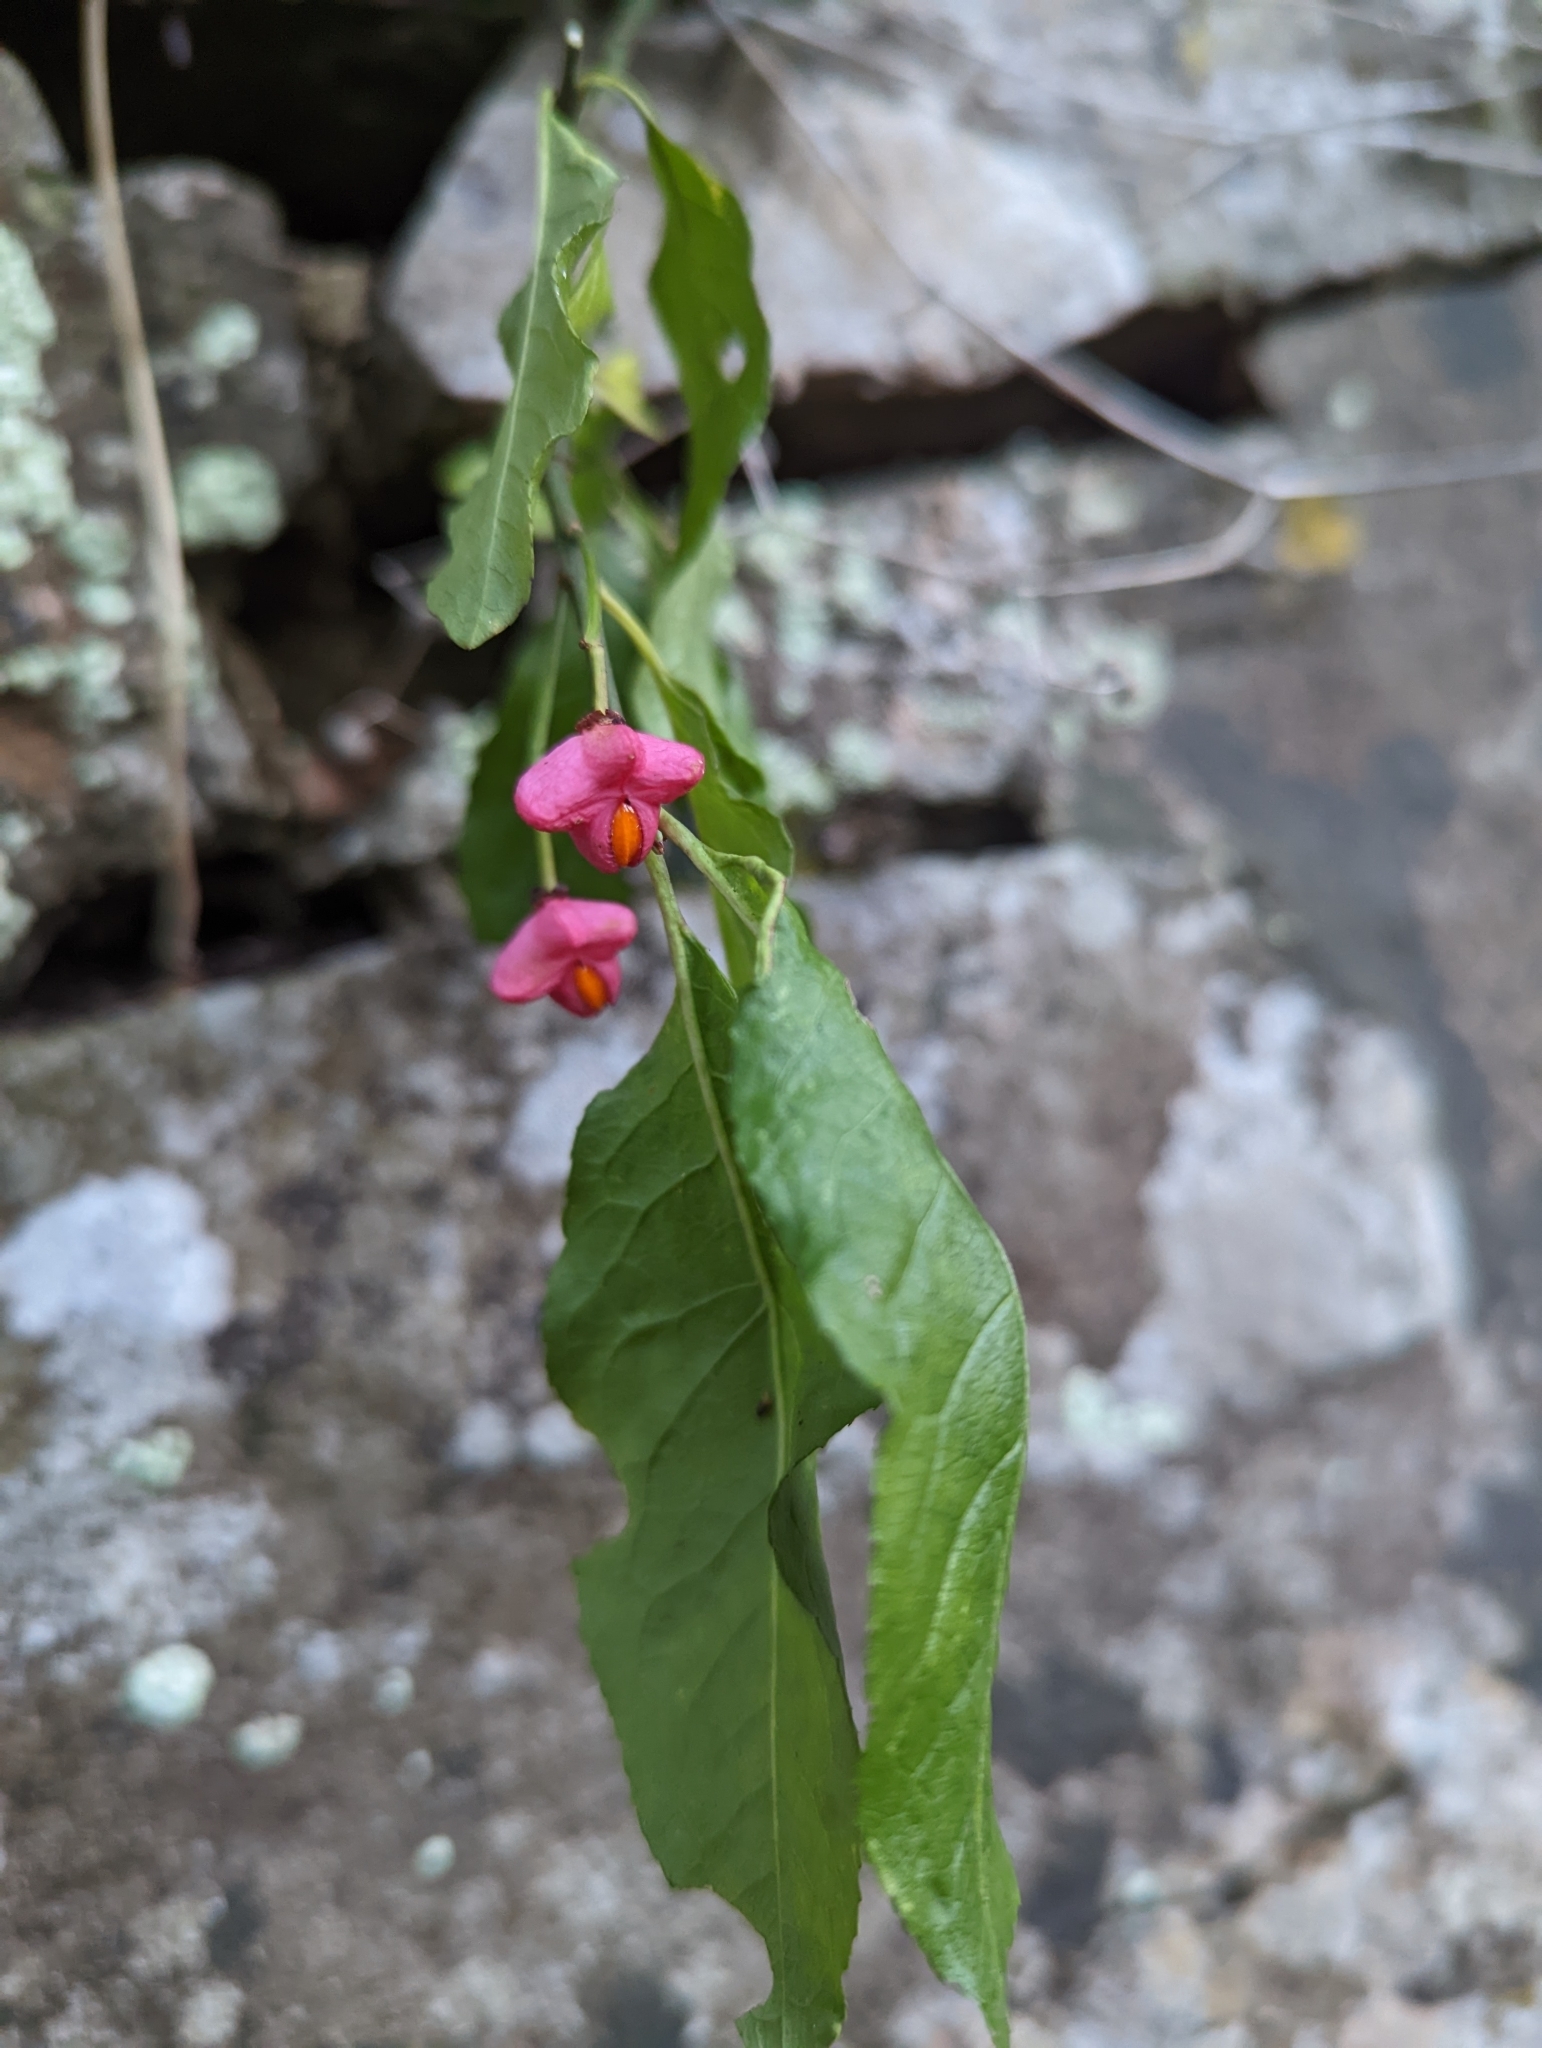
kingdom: Plantae
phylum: Tracheophyta
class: Magnoliopsida
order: Celastrales
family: Celastraceae
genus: Euonymus
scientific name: Euonymus europaeus
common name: Spindle
